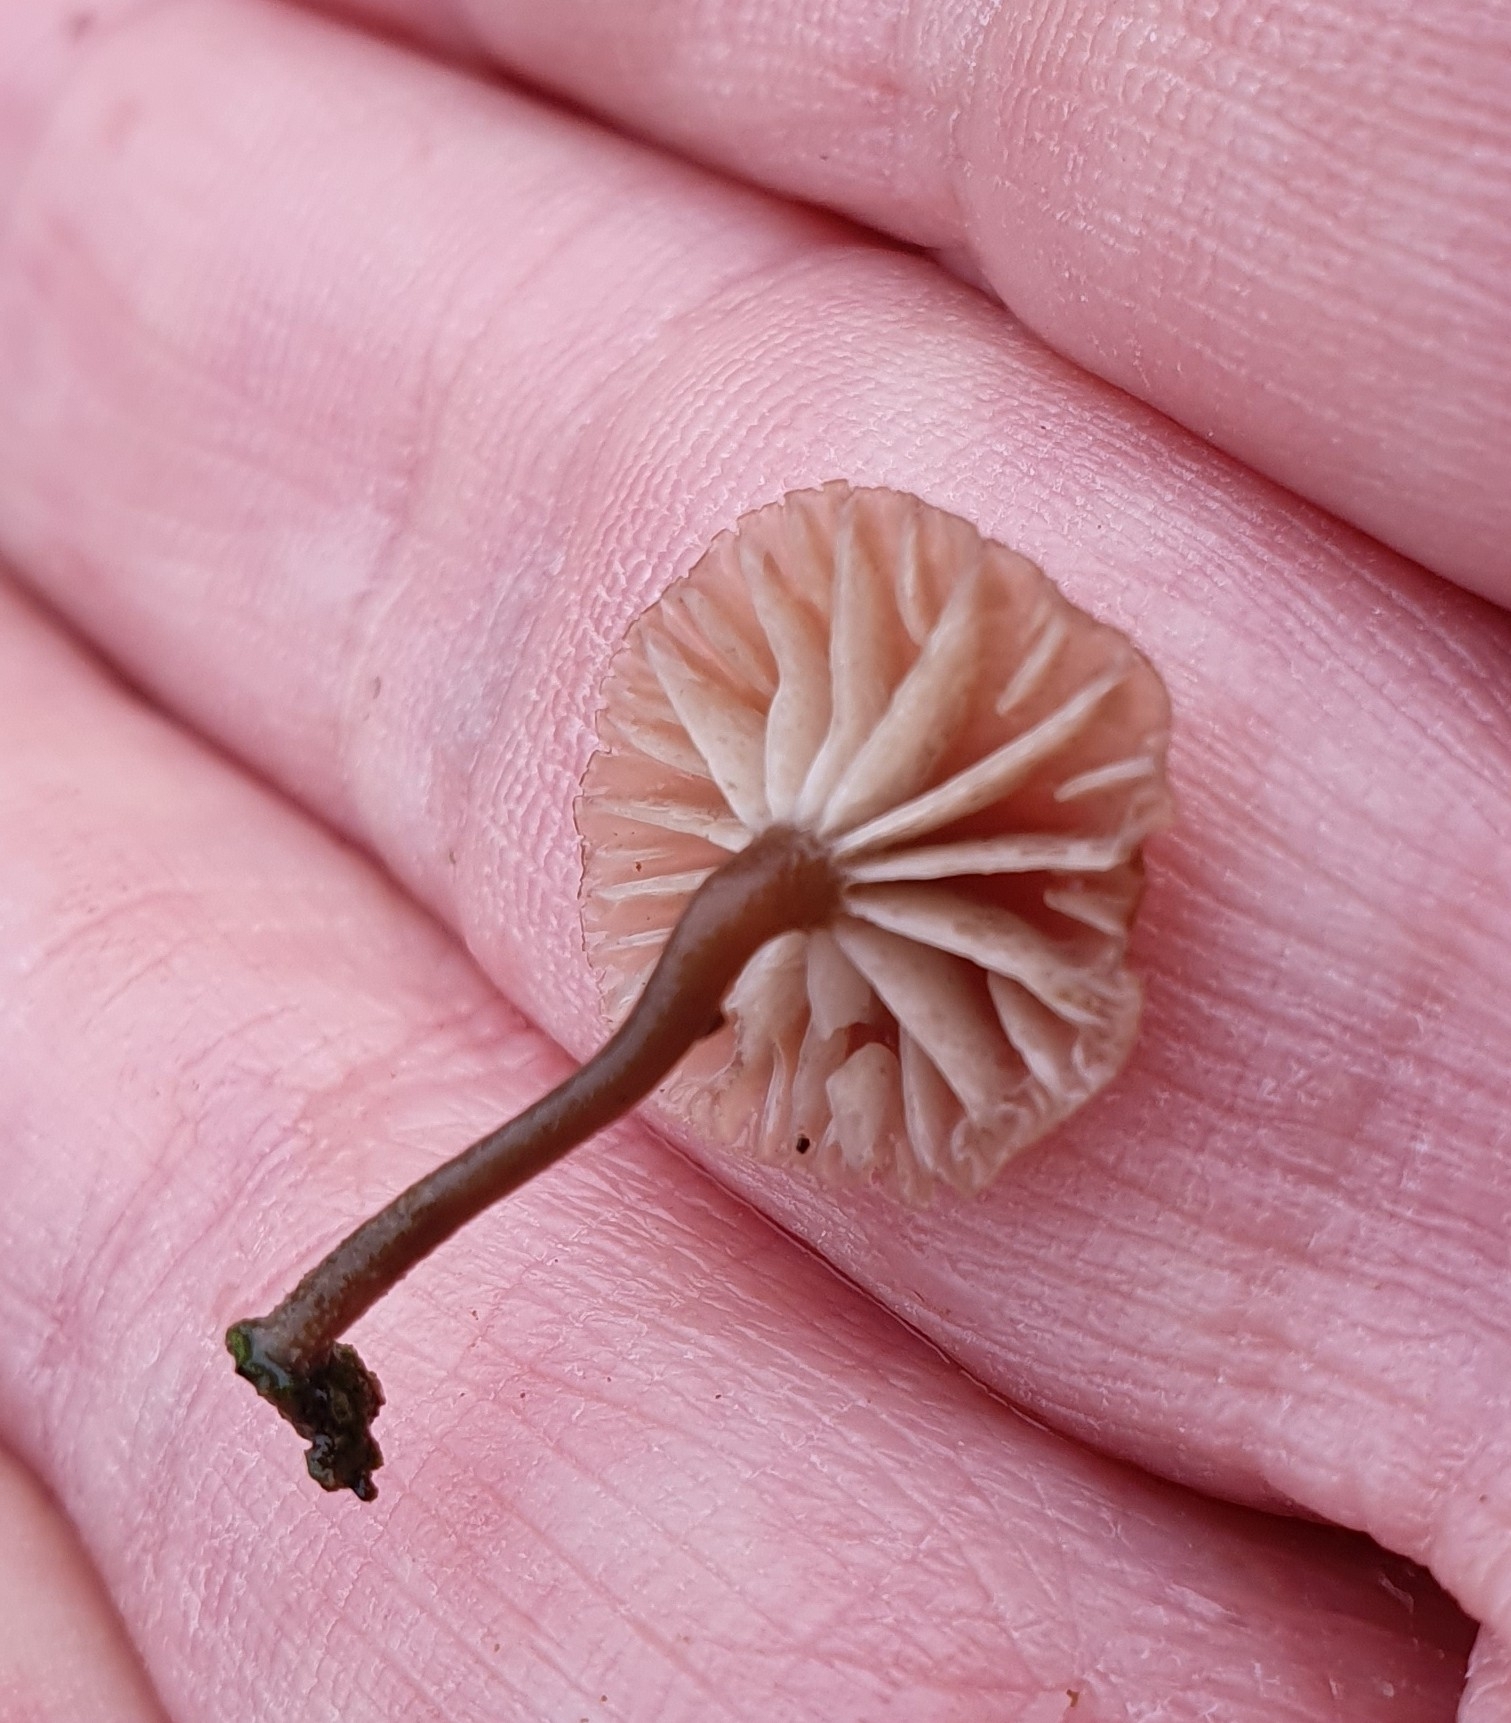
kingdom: Fungi
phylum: Basidiomycota
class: Agaricomycetes
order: Agaricales
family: Hygrophoraceae
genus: Lichenomphalia
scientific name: Lichenomphalia velutina
